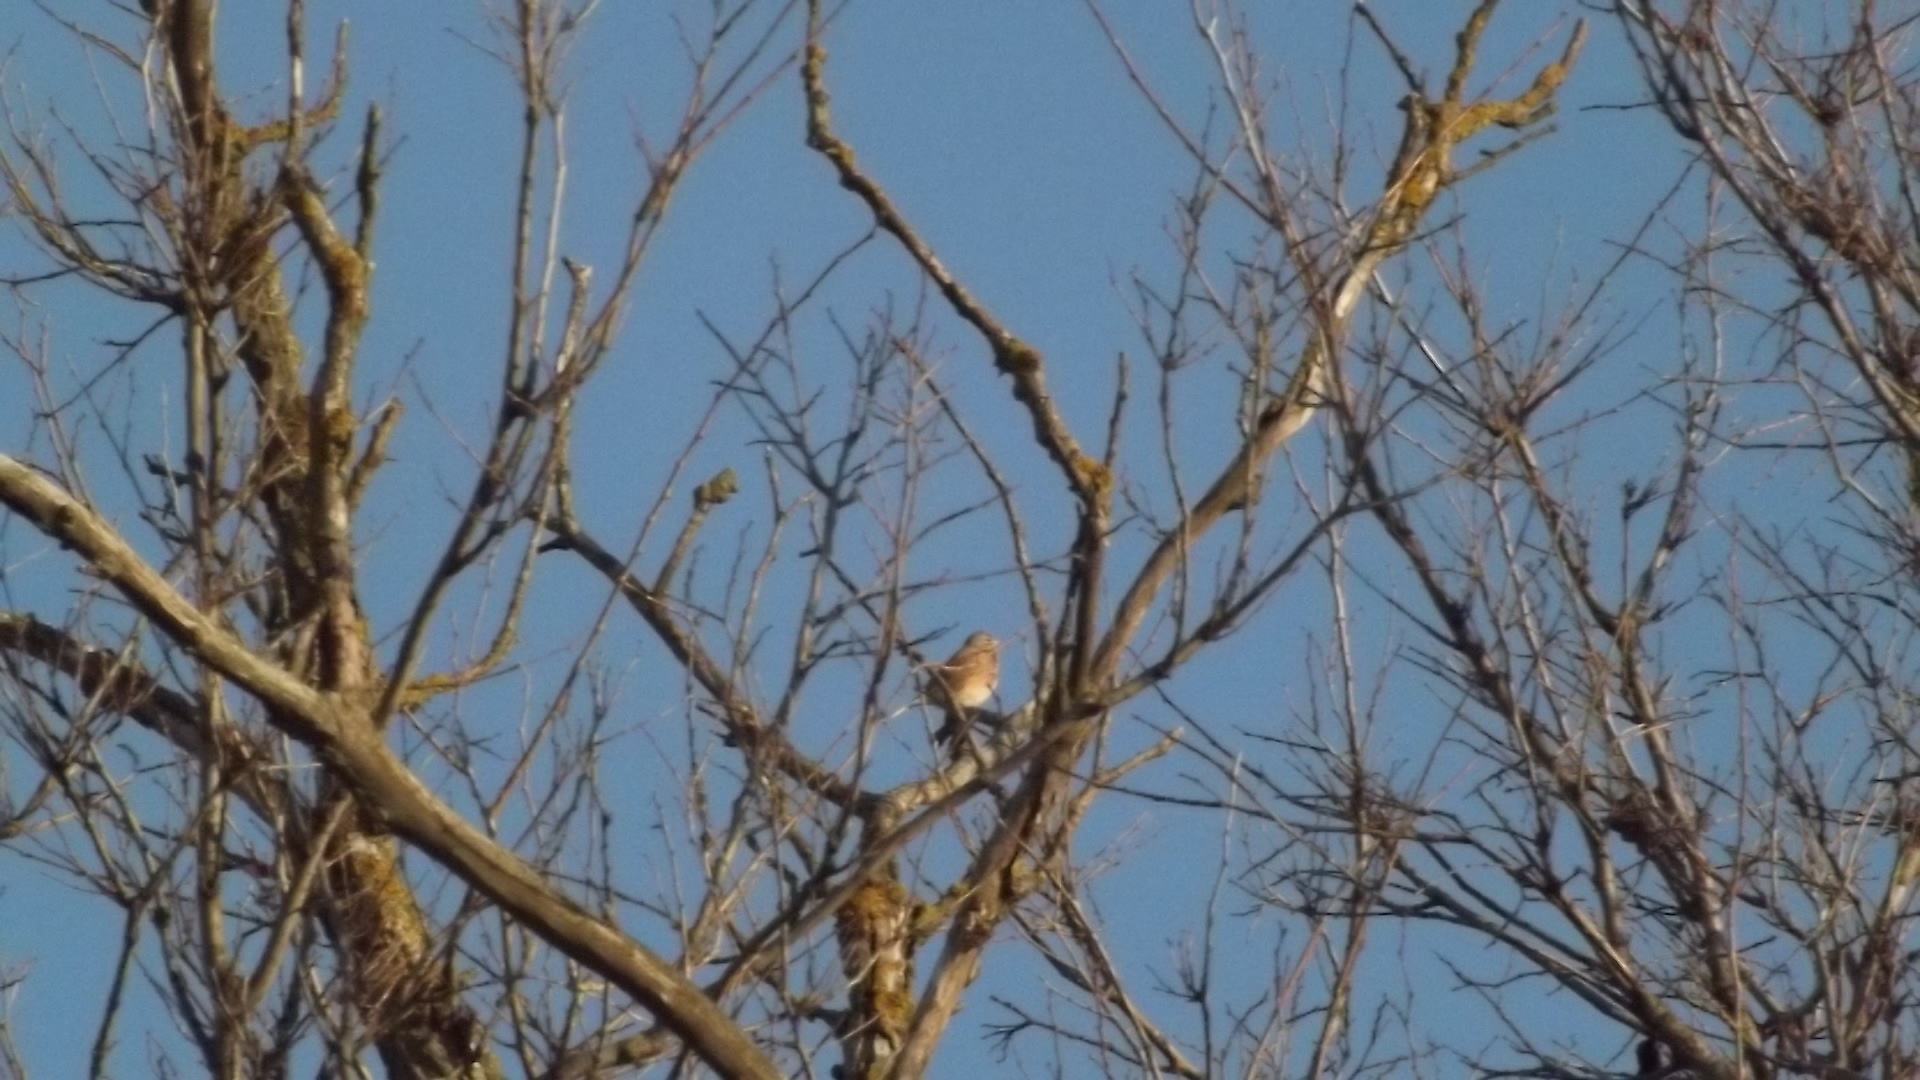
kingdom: Animalia
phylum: Chordata
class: Aves
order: Passeriformes
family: Fringillidae
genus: Linaria
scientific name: Linaria cannabina
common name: Common linnet
